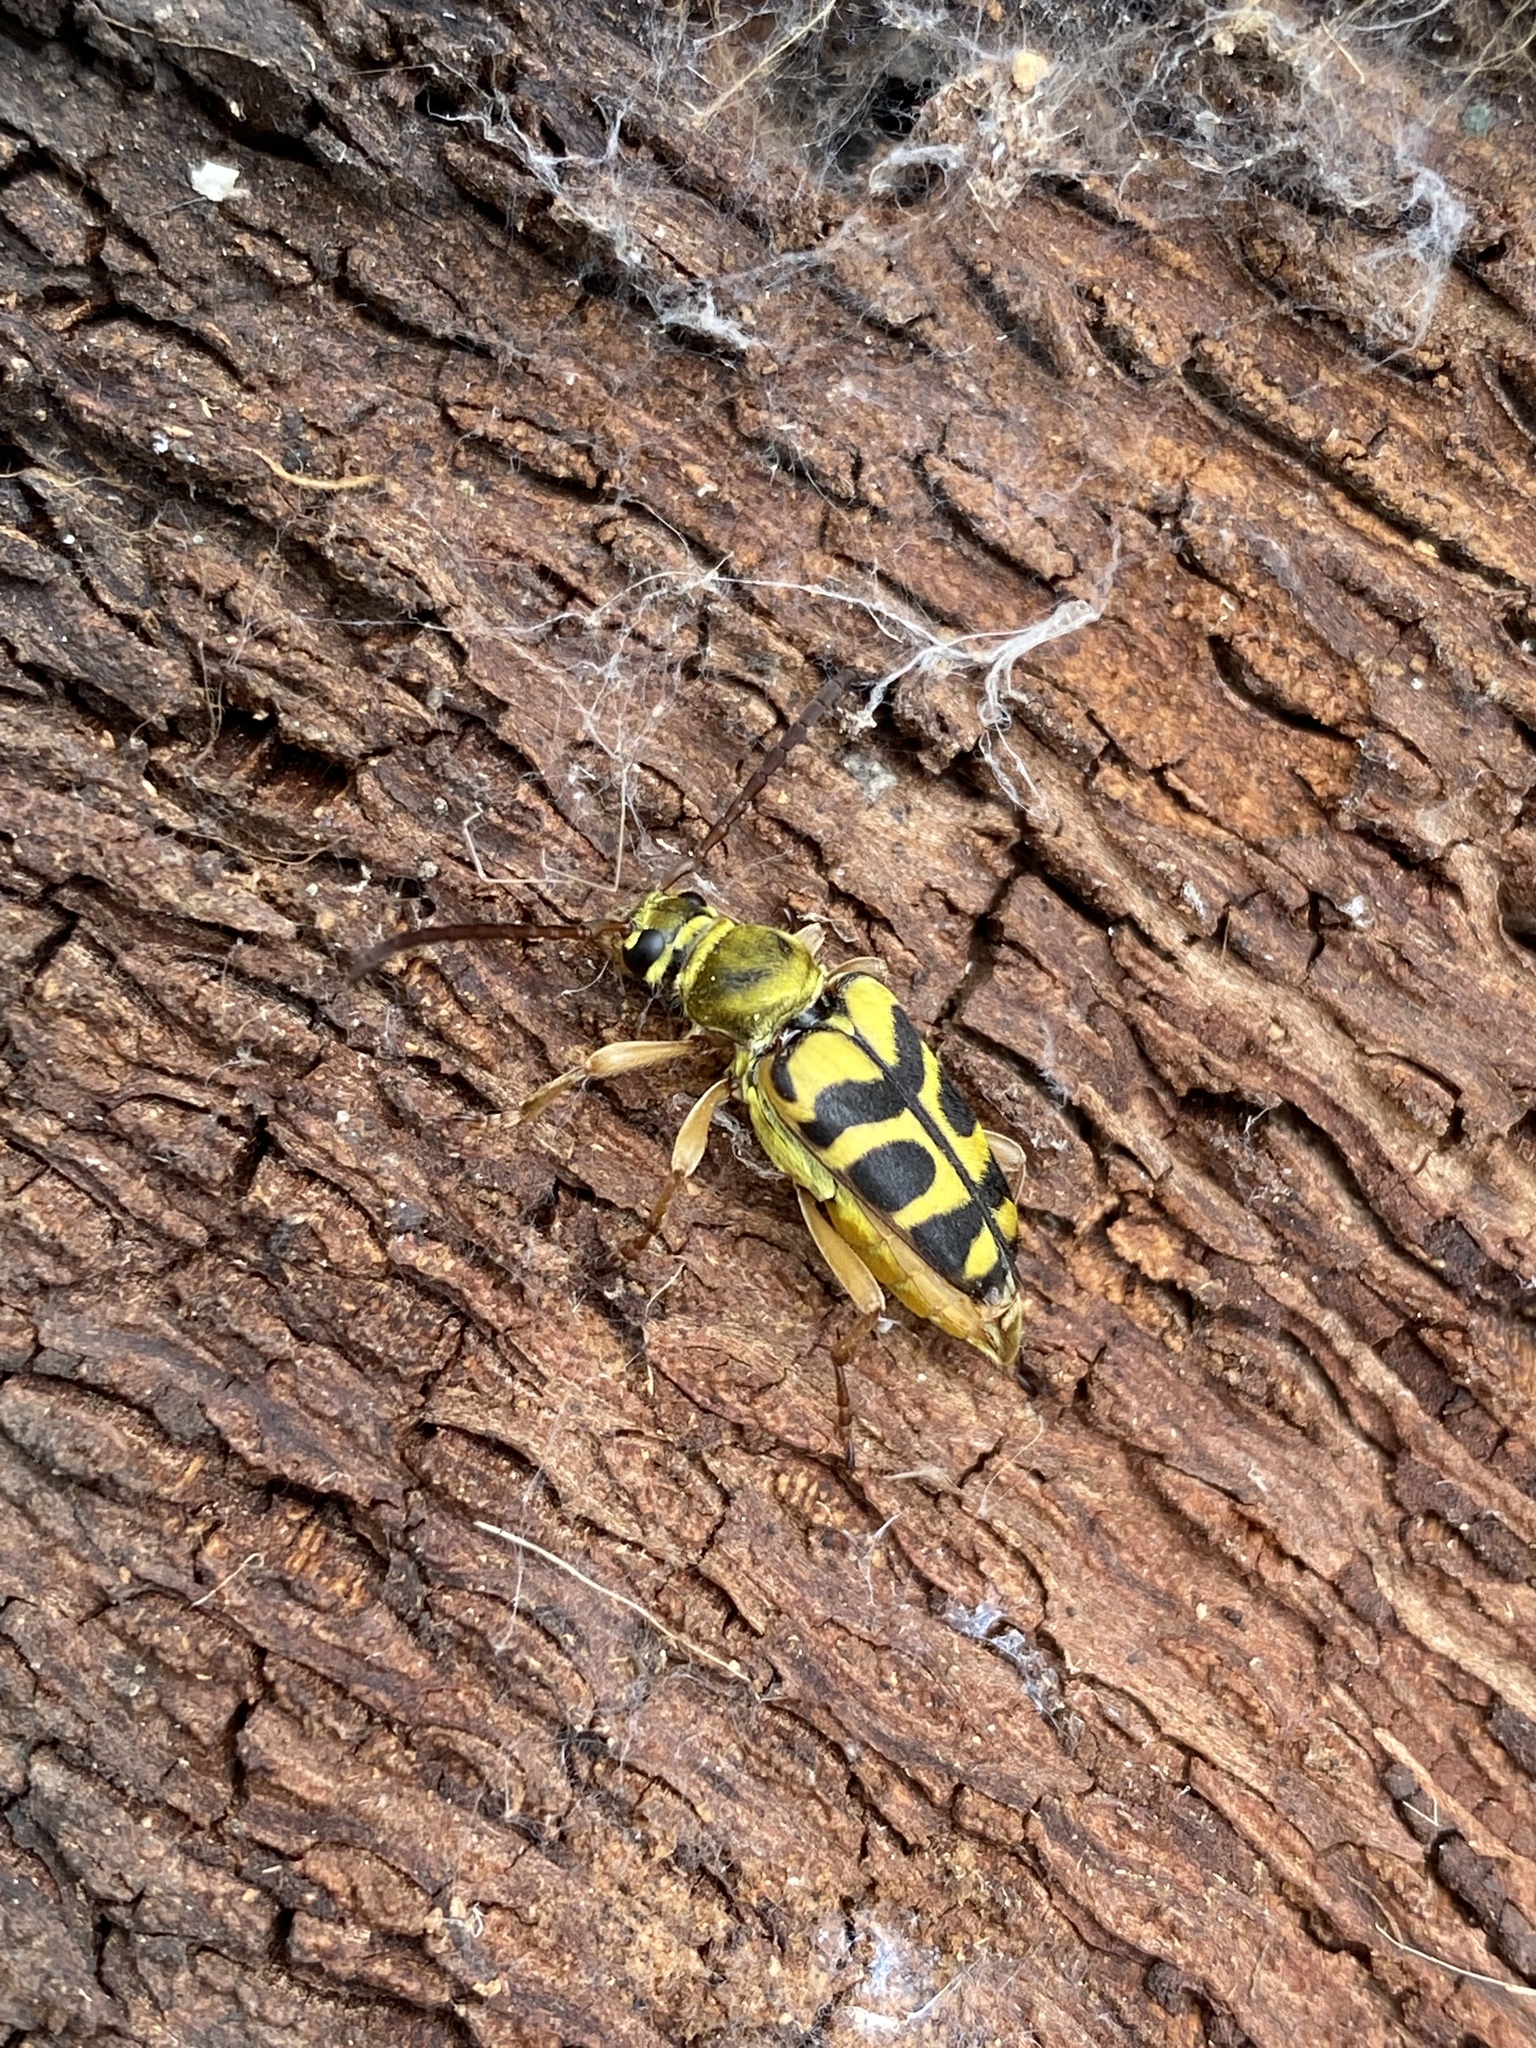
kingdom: Animalia
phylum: Arthropoda
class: Insecta
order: Coleoptera
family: Cerambycidae
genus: Strophiona
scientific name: Strophiona tigrina
